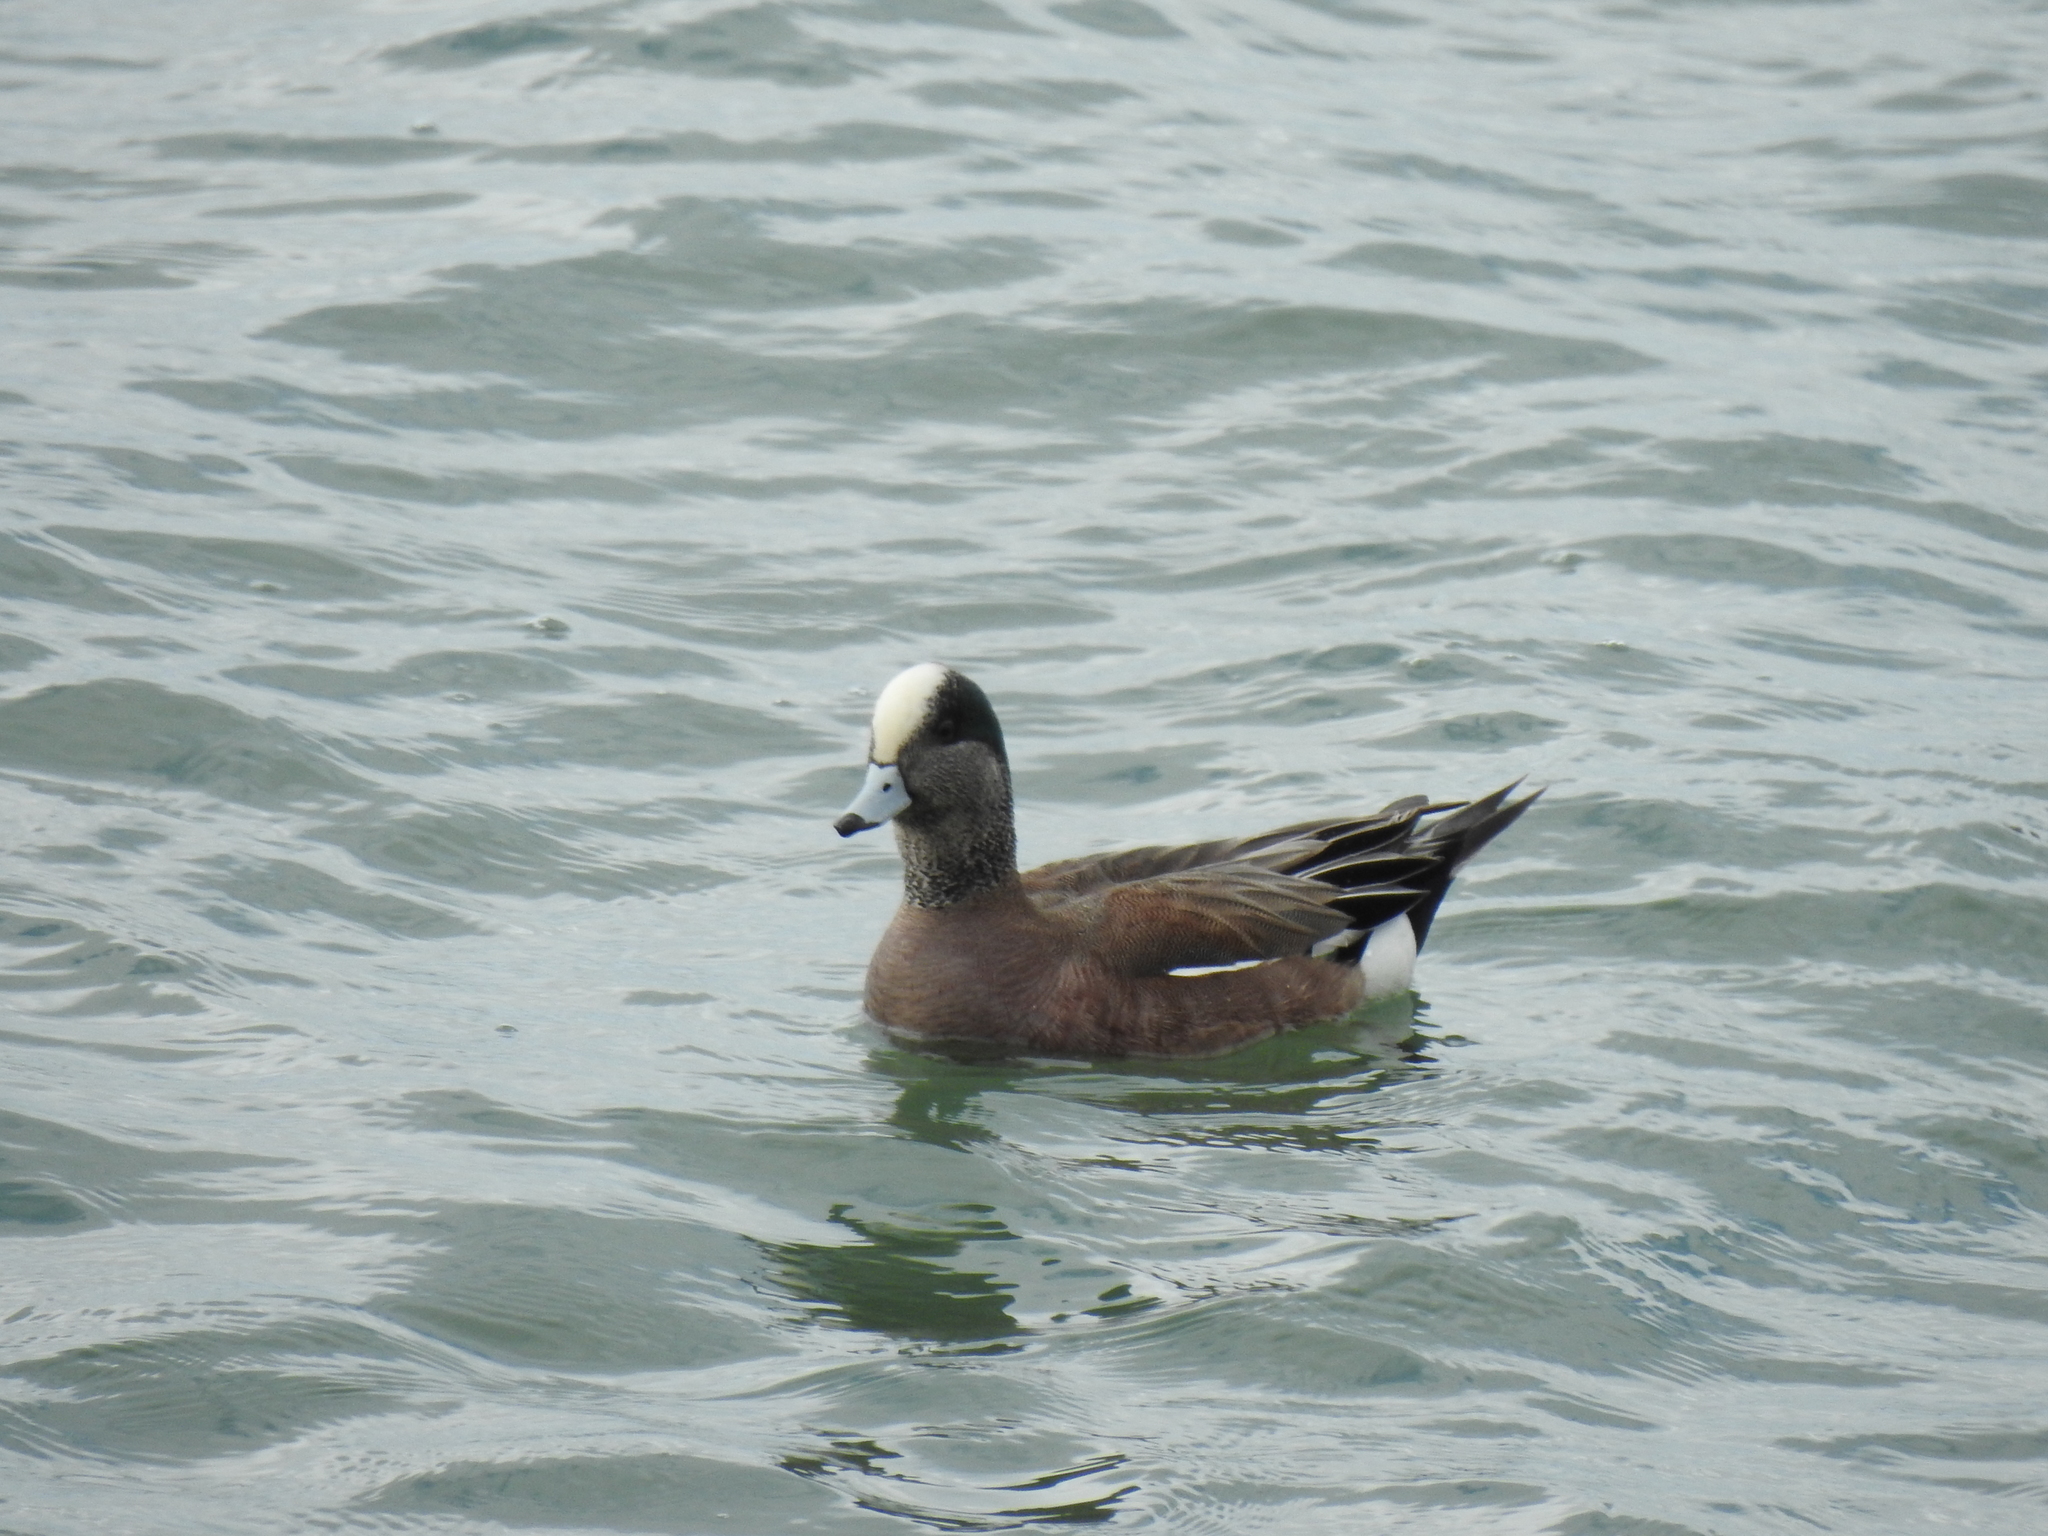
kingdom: Animalia
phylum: Chordata
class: Aves
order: Anseriformes
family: Anatidae
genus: Mareca
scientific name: Mareca americana
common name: American wigeon
